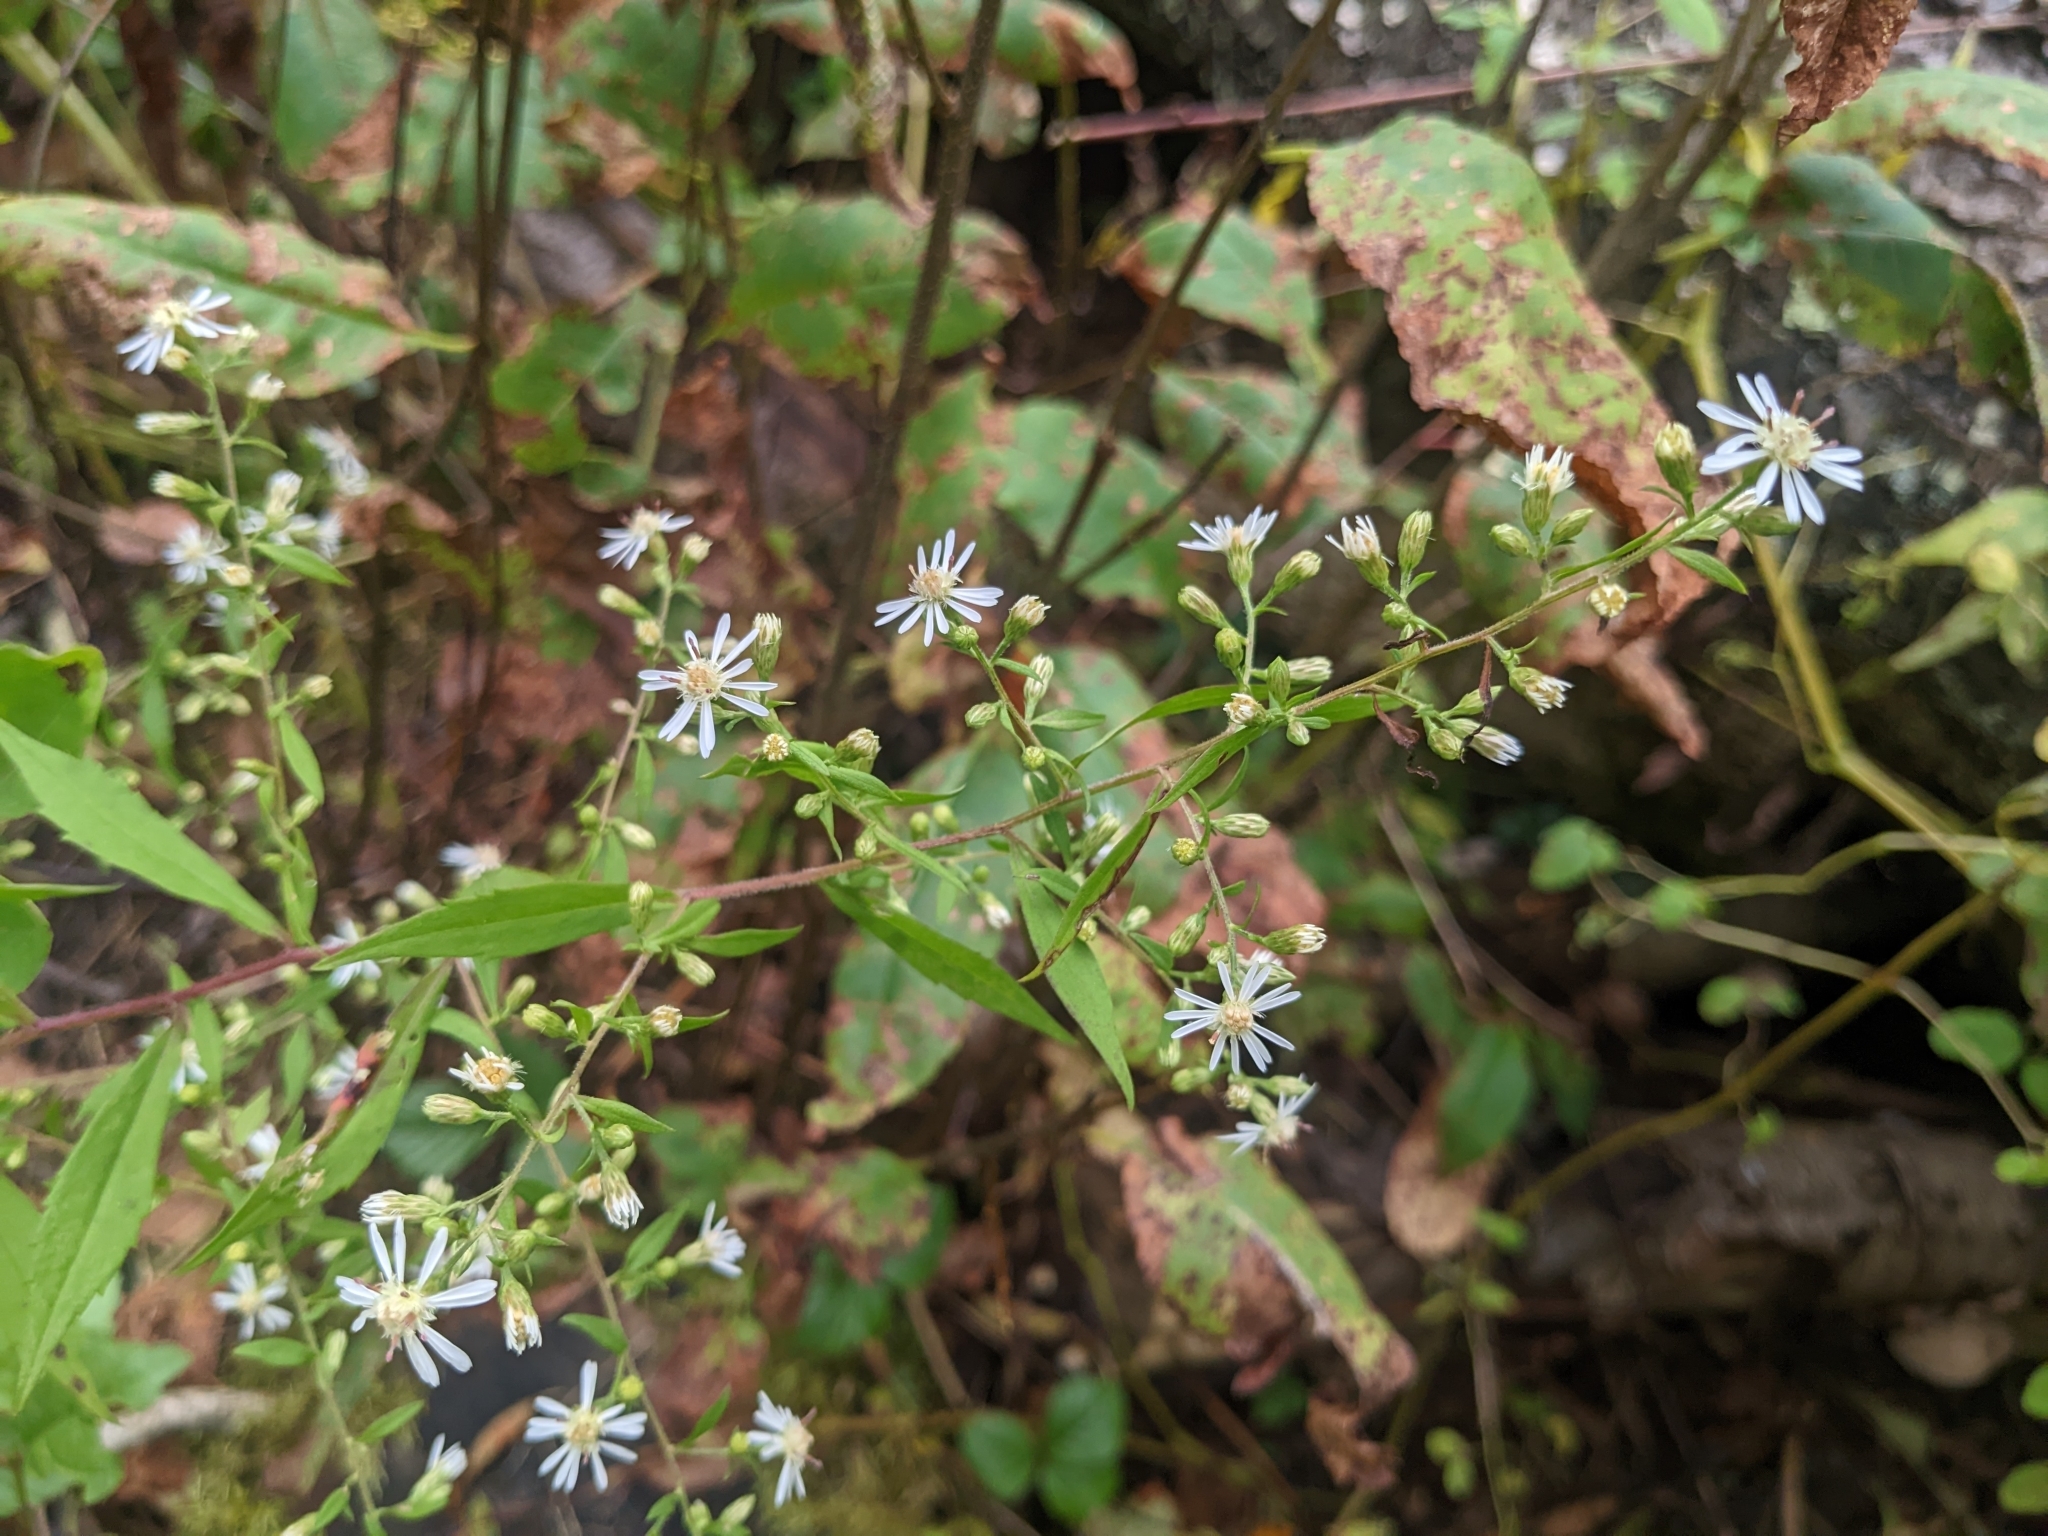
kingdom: Plantae
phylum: Tracheophyta
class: Magnoliopsida
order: Asterales
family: Asteraceae
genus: Symphyotrichum
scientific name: Symphyotrichum lateriflorum
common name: Calico aster
